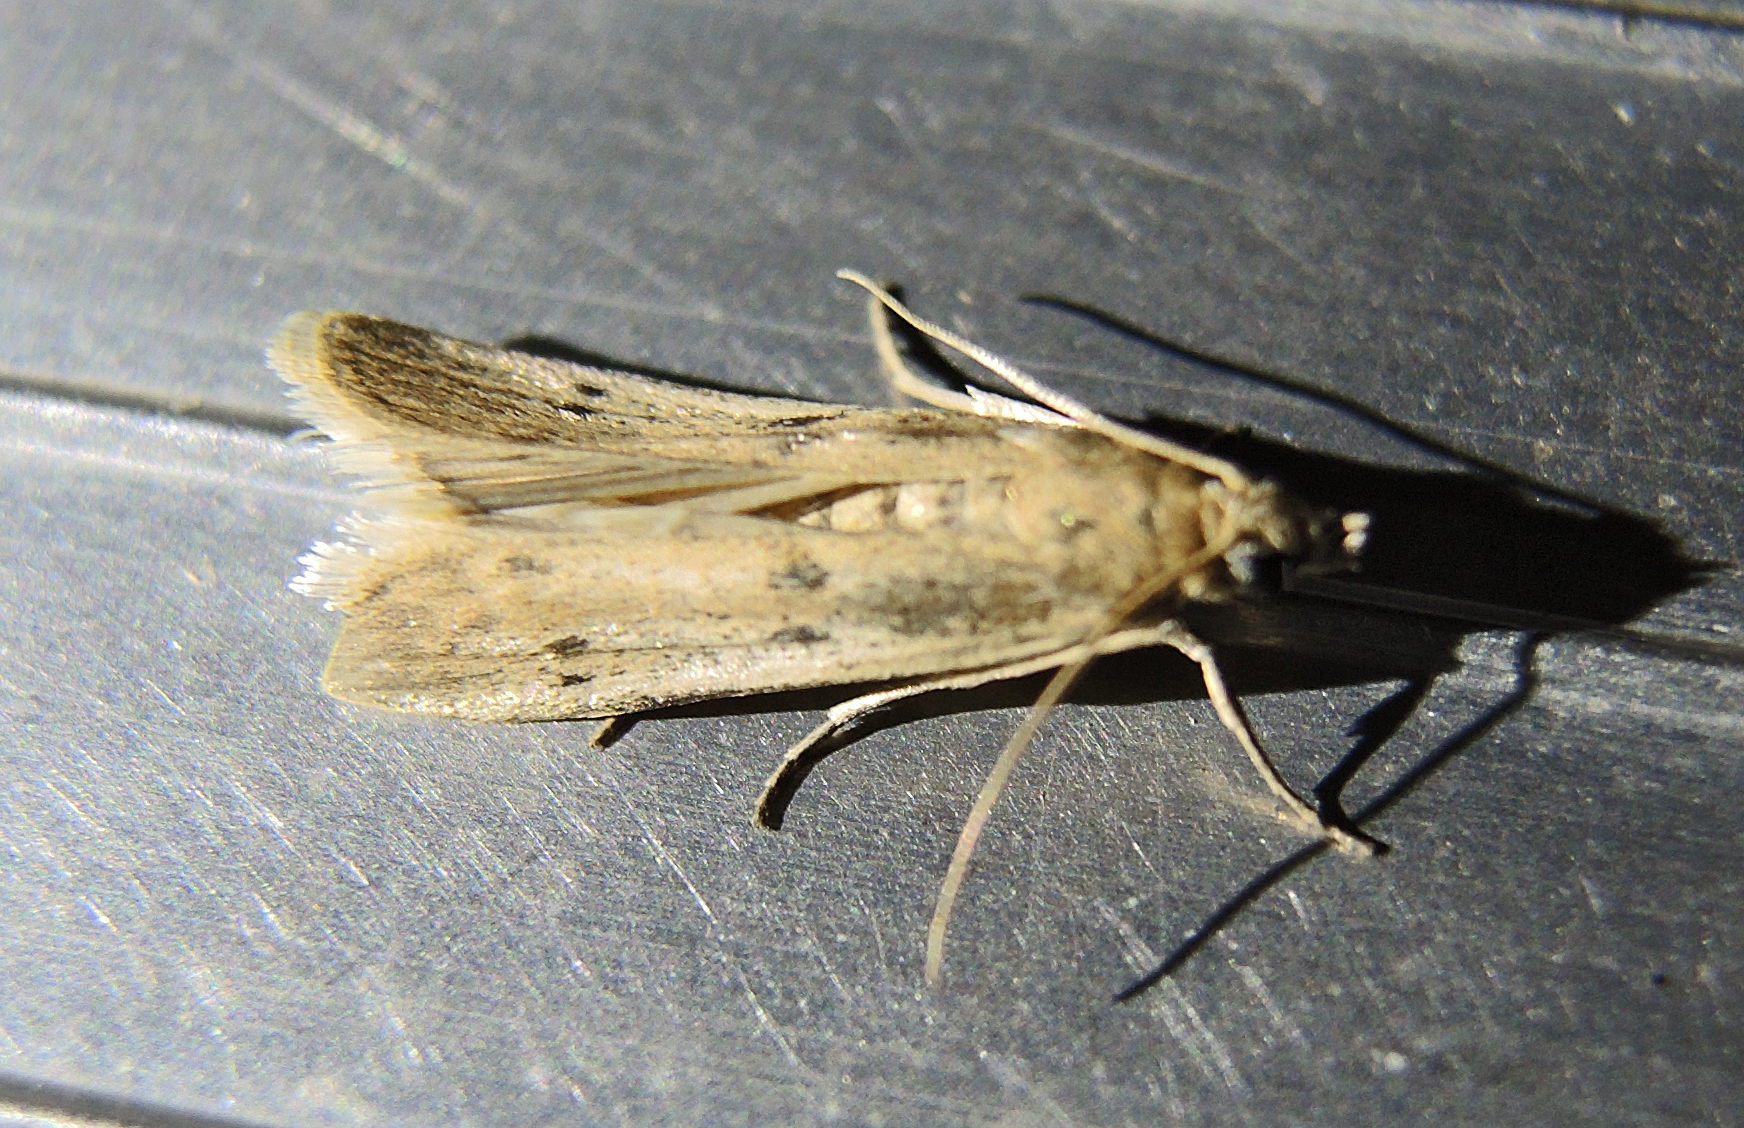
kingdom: Animalia
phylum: Arthropoda
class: Insecta
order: Lepidoptera
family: Pyralidae
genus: Phycitodes
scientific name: Phycitodes
